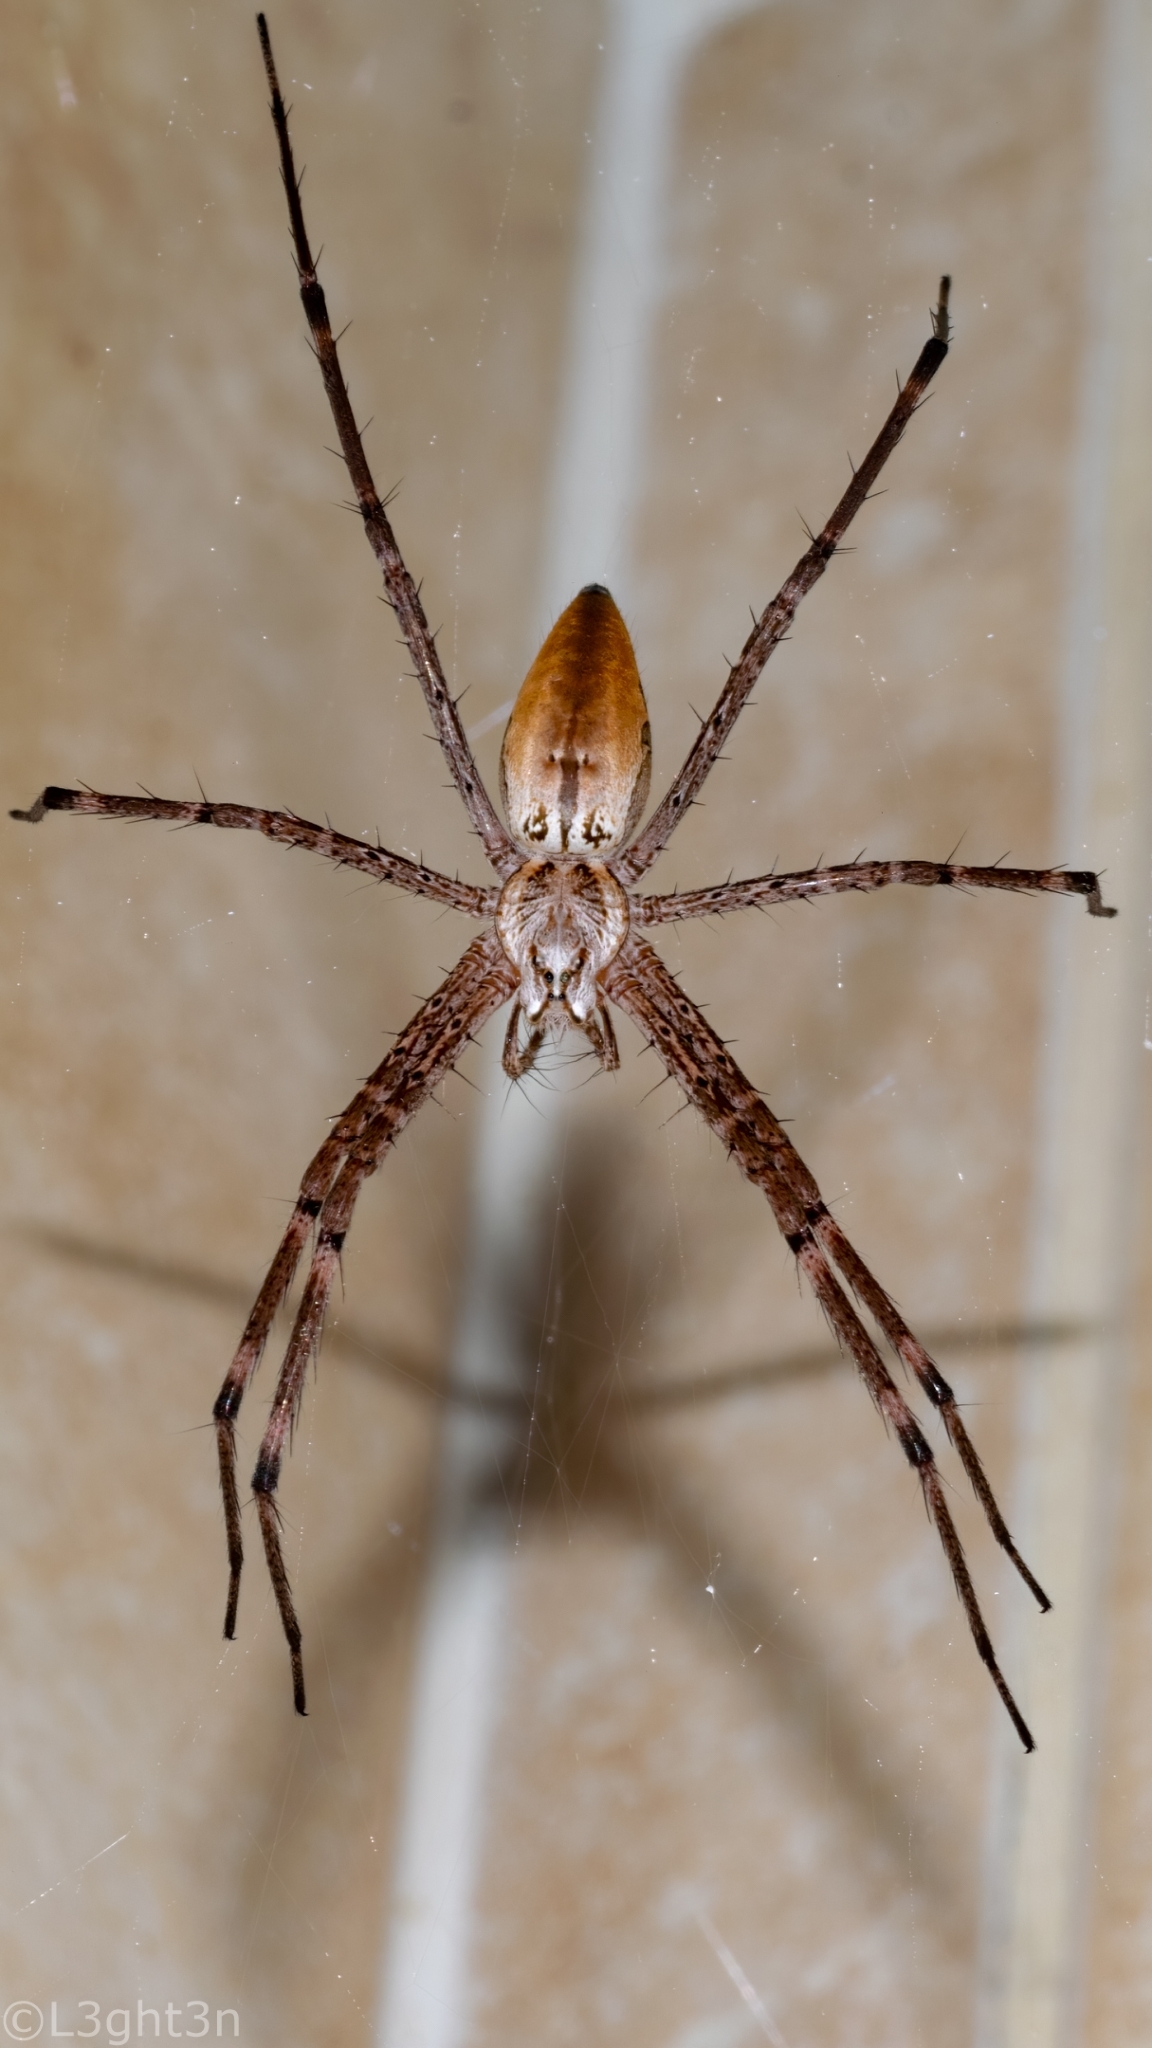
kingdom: Animalia
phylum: Arthropoda
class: Arachnida
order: Araneae
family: Pisauridae
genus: Euprosthenops
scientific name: Euprosthenops australis
